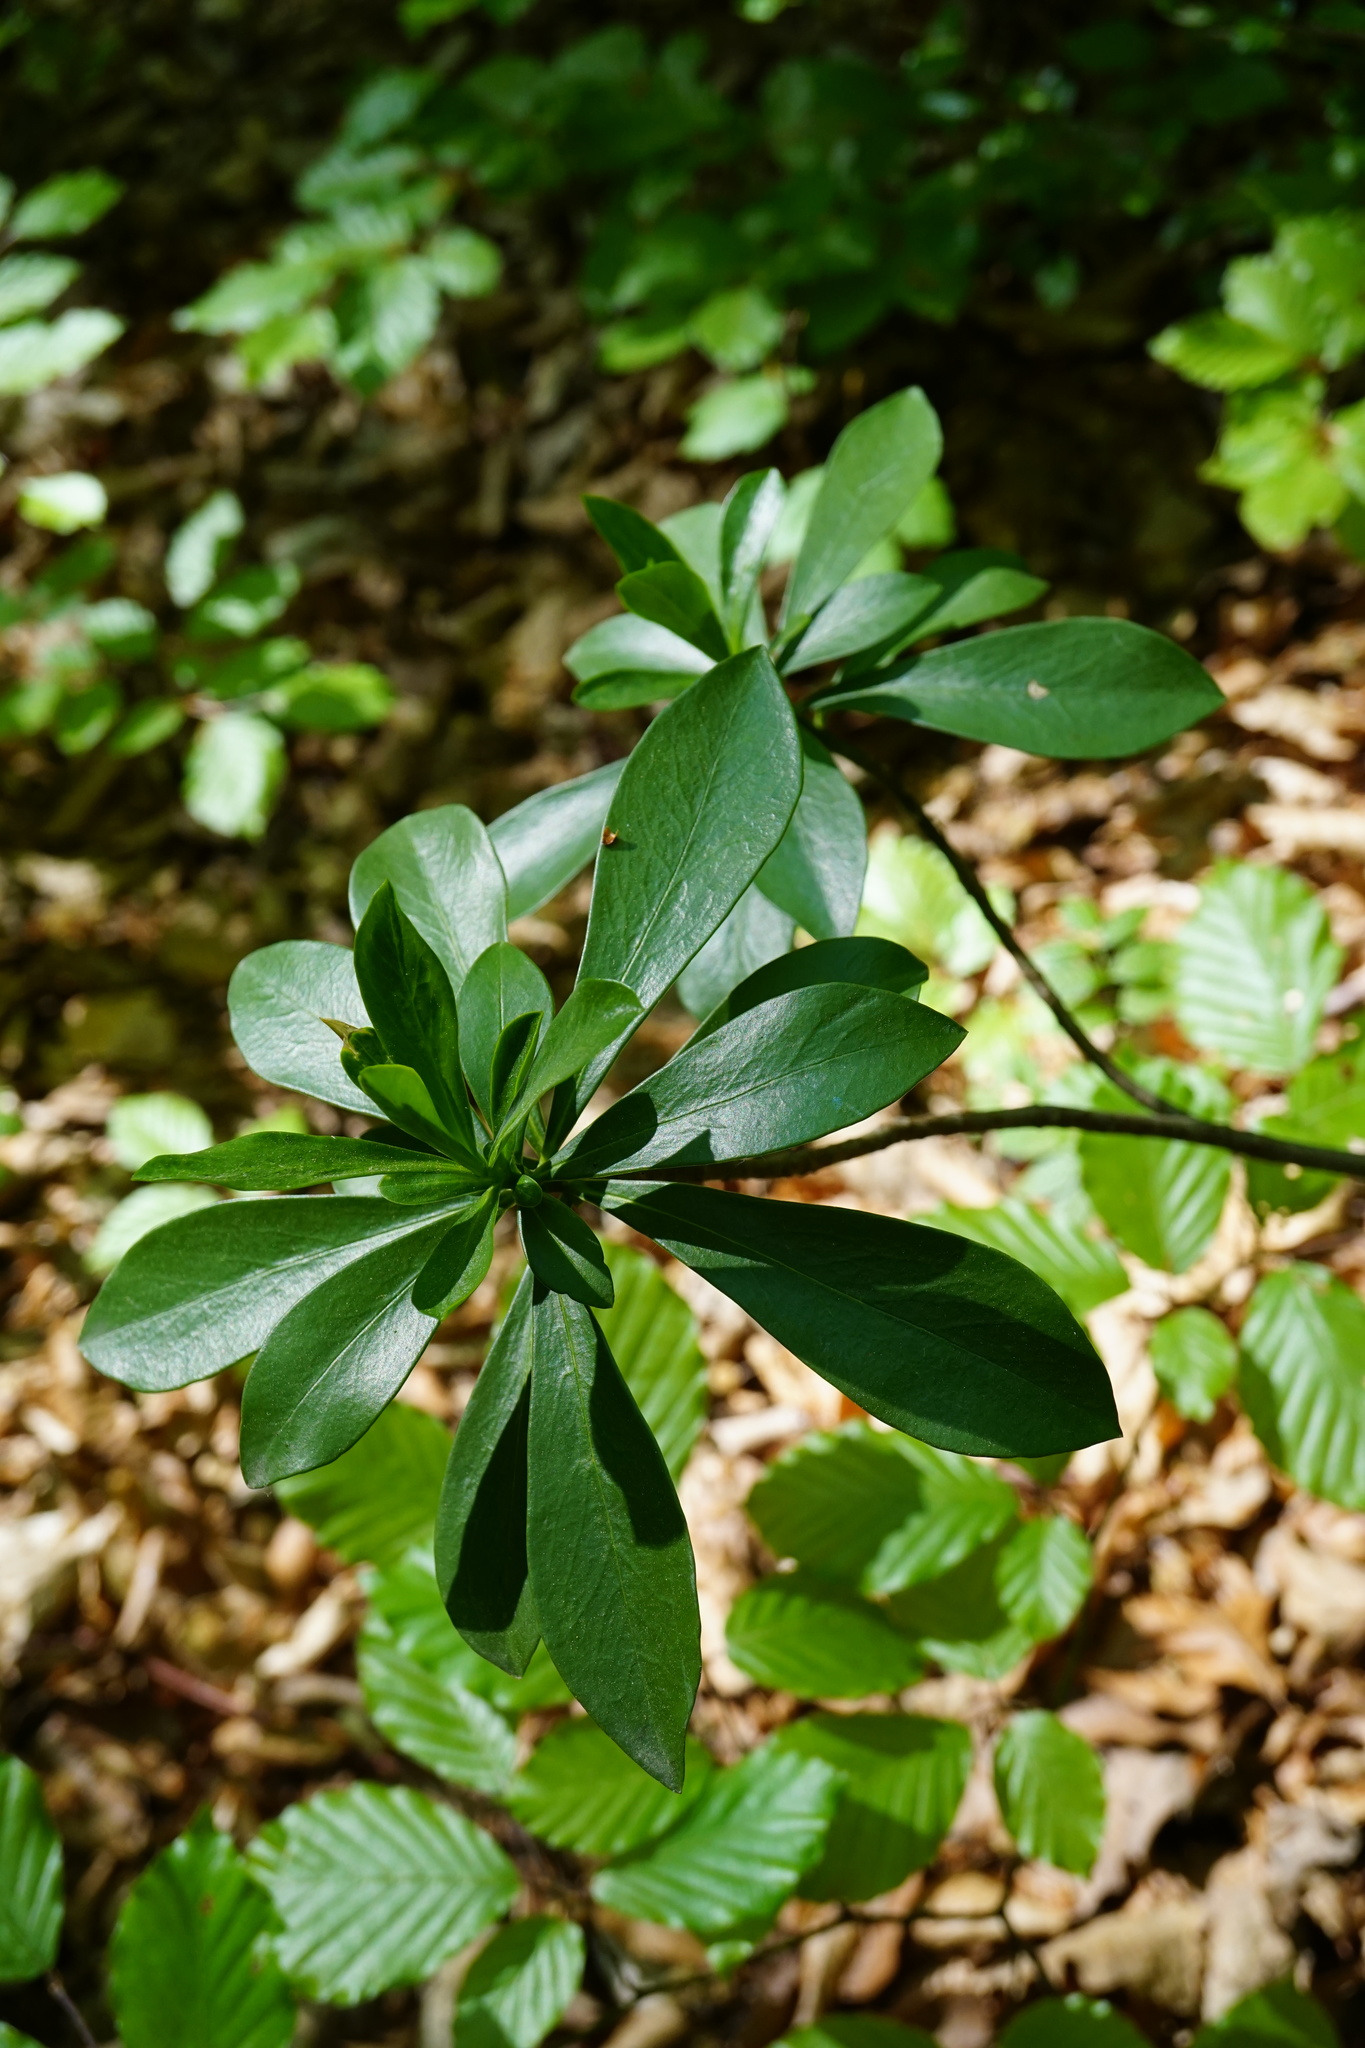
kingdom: Plantae
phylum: Tracheophyta
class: Magnoliopsida
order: Malvales
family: Thymelaeaceae
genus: Daphne
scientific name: Daphne laureola
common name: Spurge-laurel
